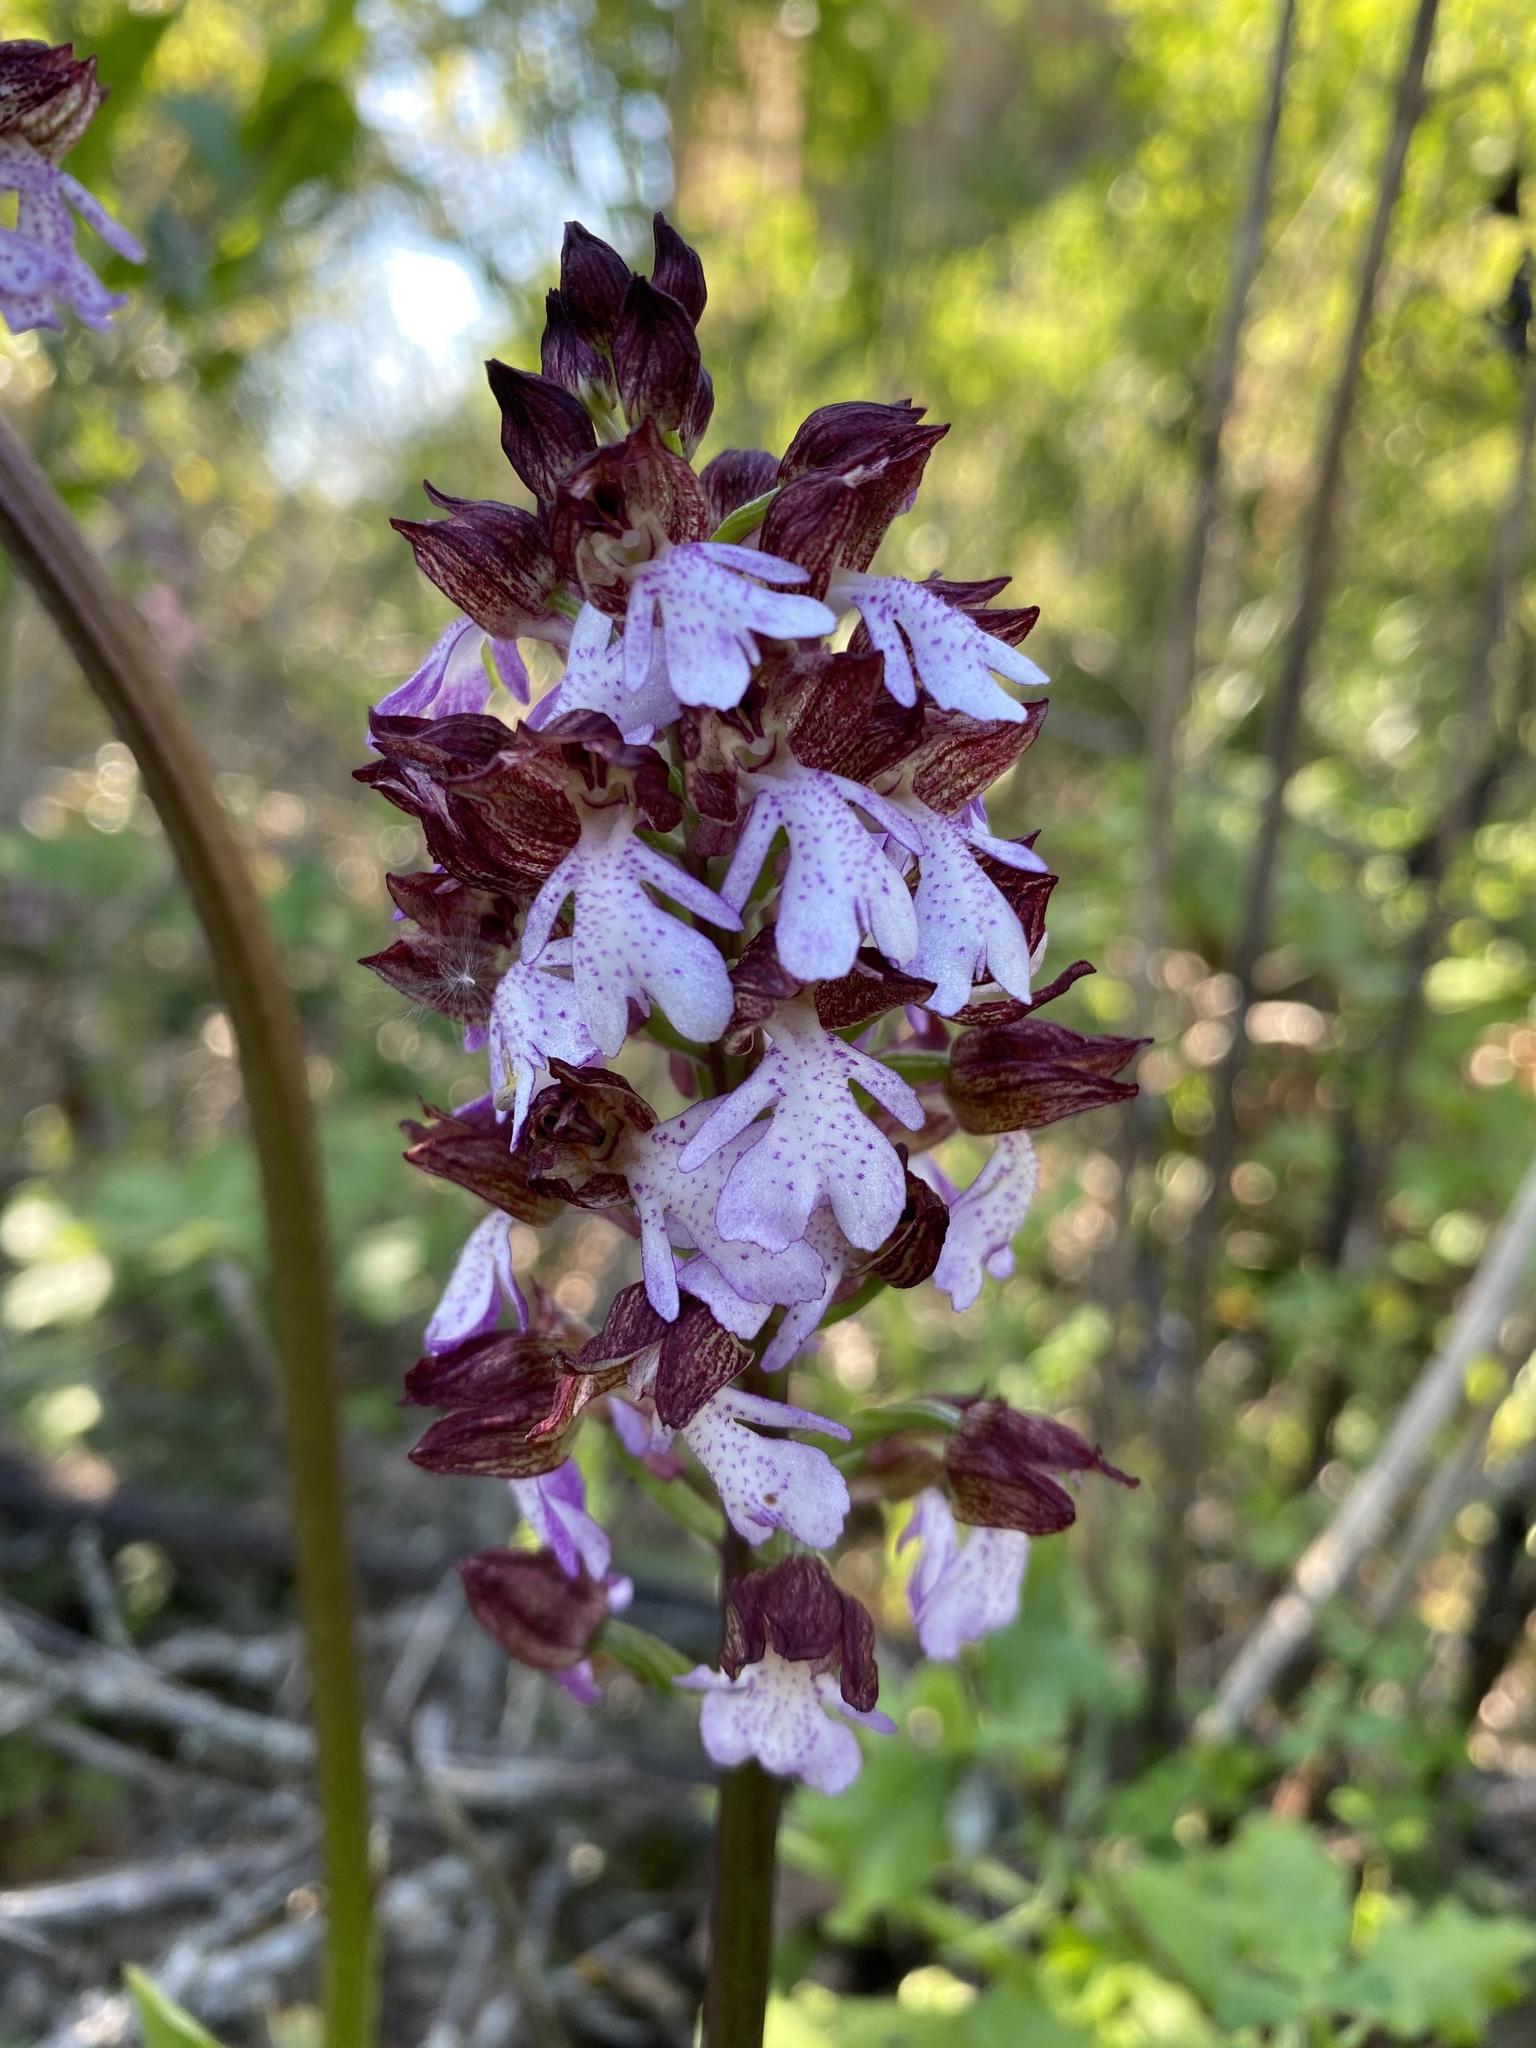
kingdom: Plantae
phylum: Tracheophyta
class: Liliopsida
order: Asparagales
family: Orchidaceae
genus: Orchis
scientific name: Orchis purpurea
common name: Lady orchid
